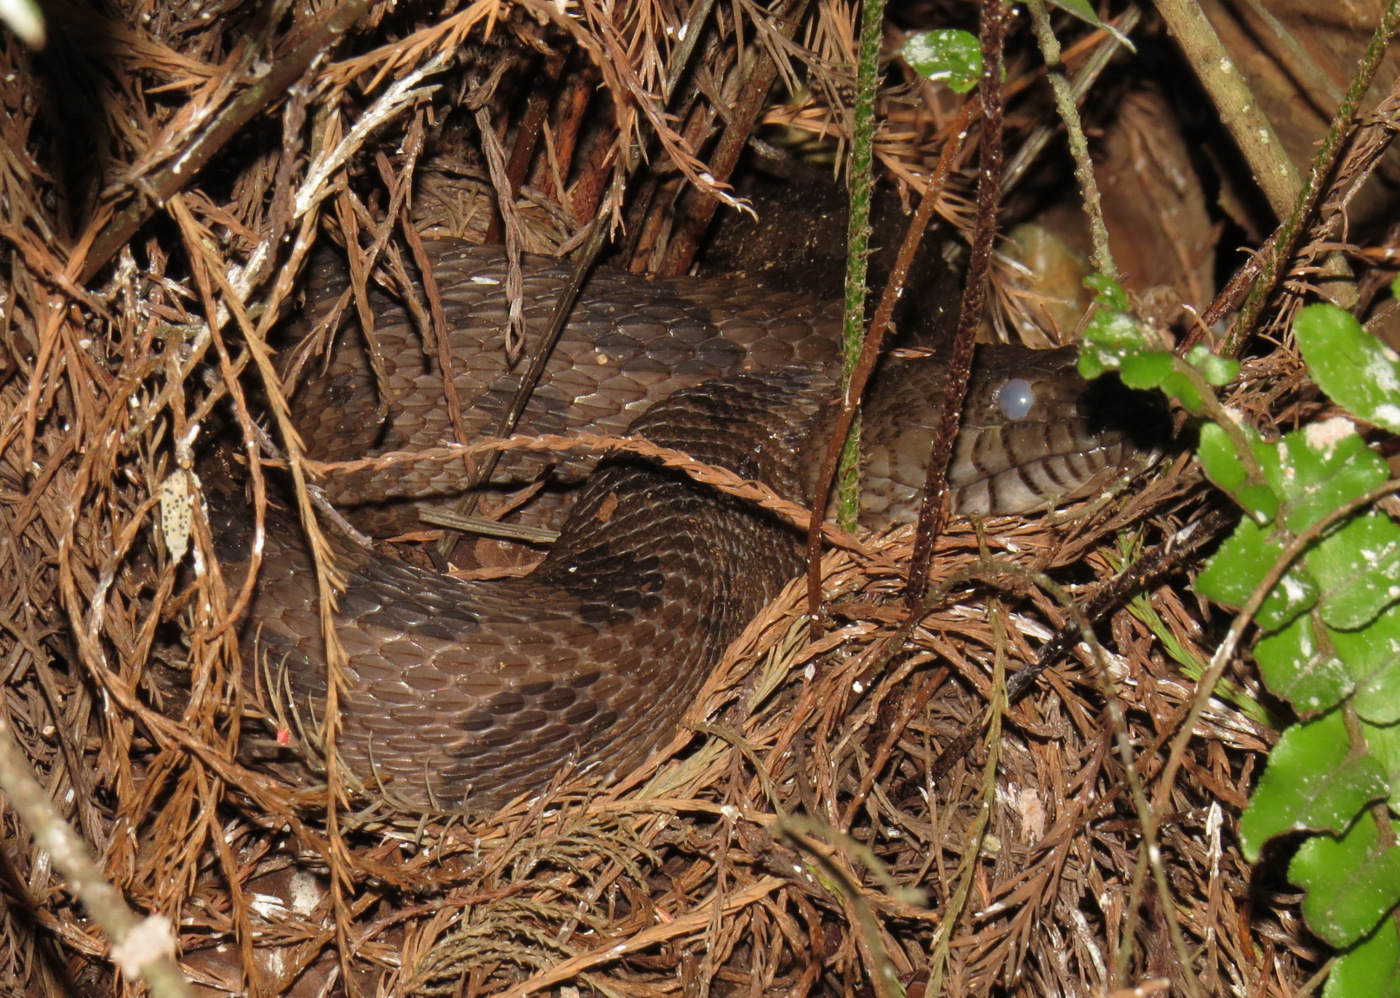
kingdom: Animalia
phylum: Chordata
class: Squamata
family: Colubridae
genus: Nerodia
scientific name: Nerodia taxispilota
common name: Brown water snake
